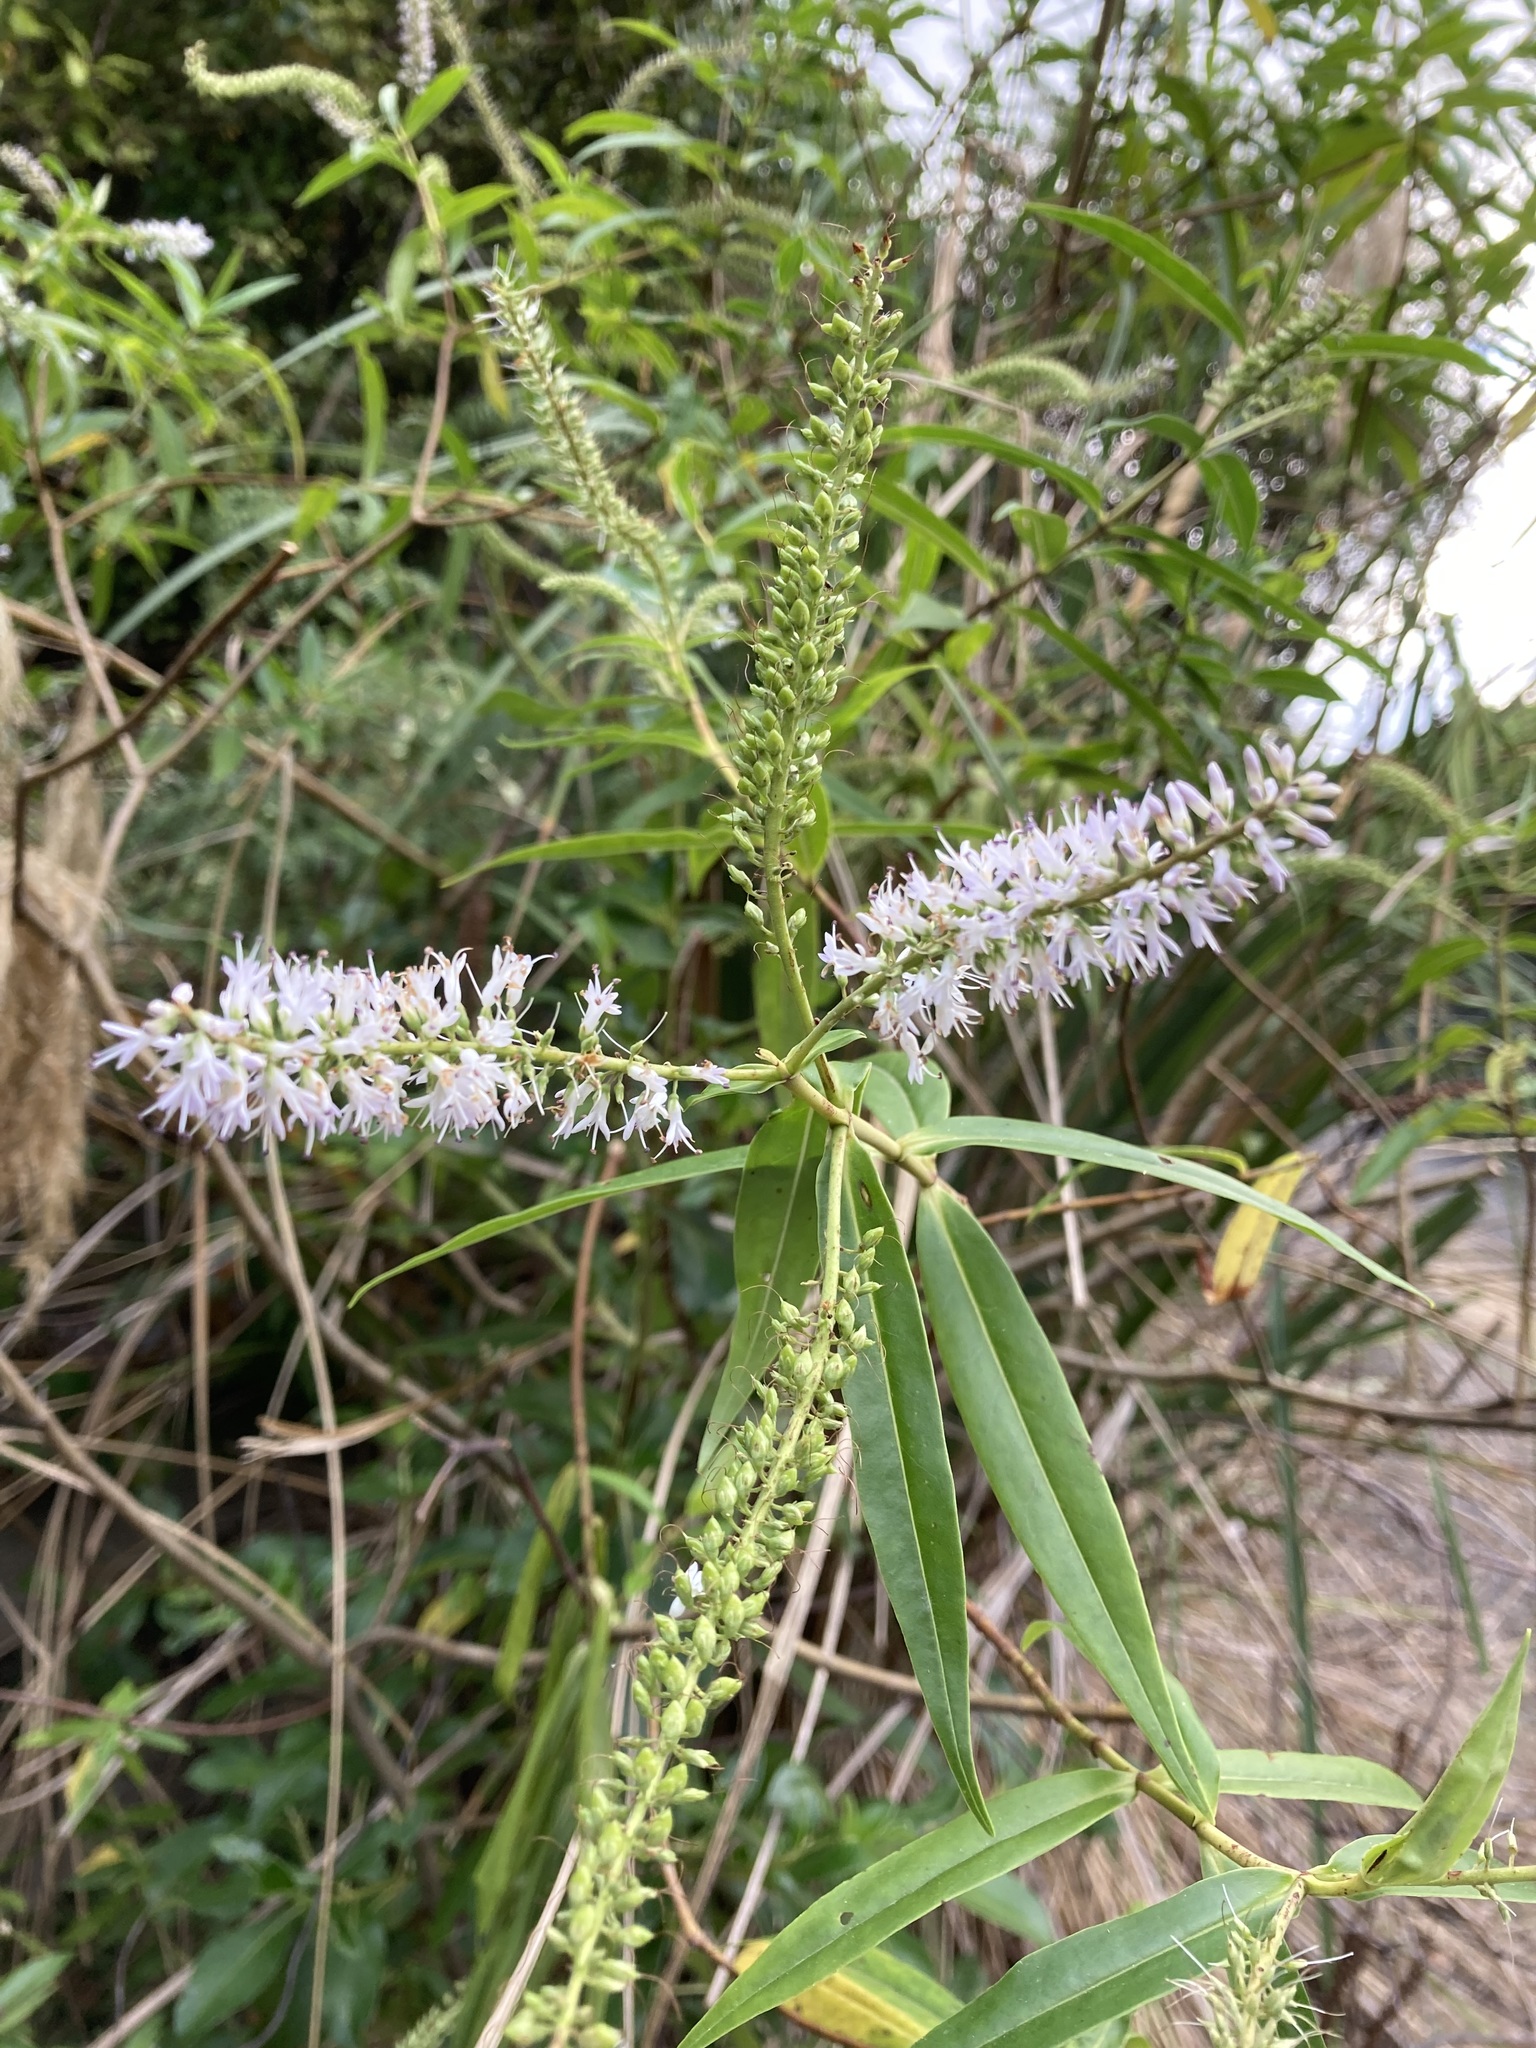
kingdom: Plantae
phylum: Tracheophyta
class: Magnoliopsida
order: Lamiales
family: Plantaginaceae
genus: Veronica
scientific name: Veronica stricta
